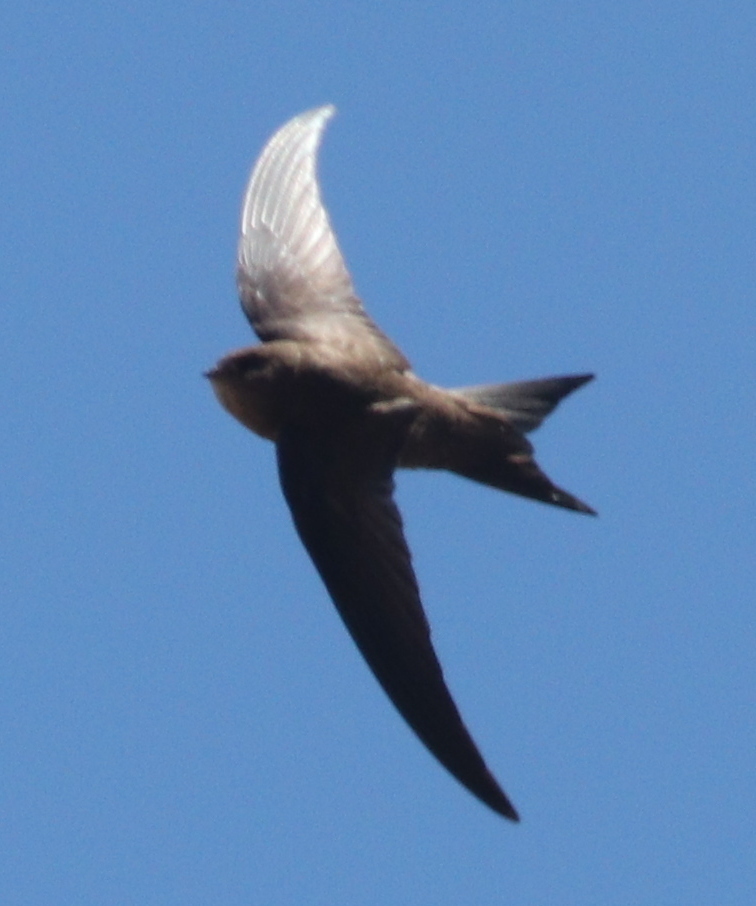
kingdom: Animalia
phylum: Chordata
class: Aves
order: Apodiformes
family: Apodidae
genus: Apus
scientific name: Apus unicolor
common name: Plain swift
